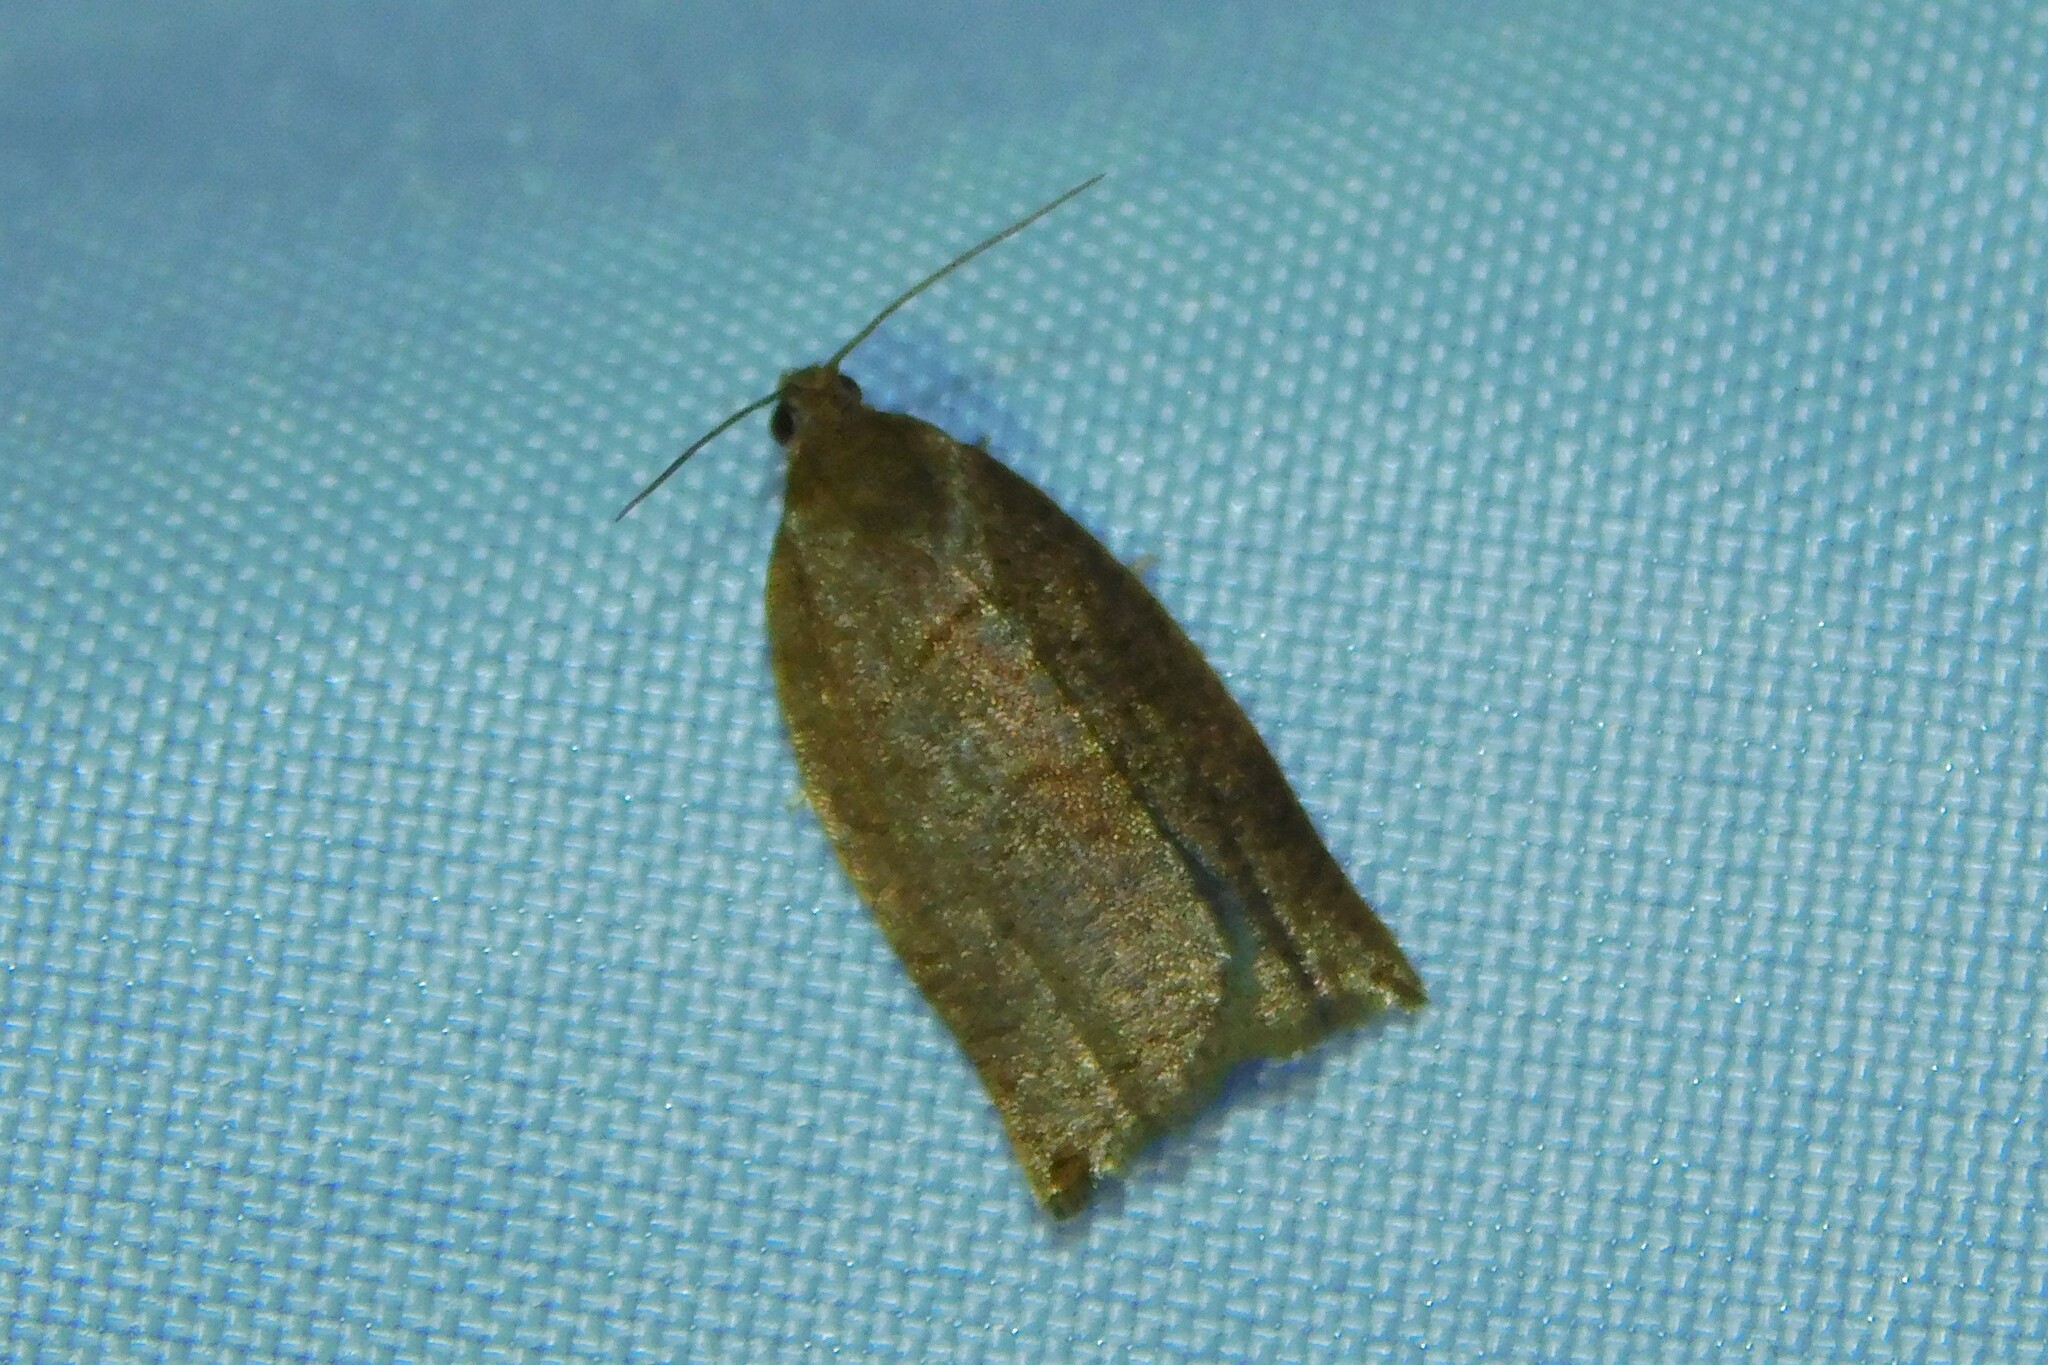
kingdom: Animalia
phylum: Arthropoda
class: Insecta
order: Lepidoptera
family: Tortricidae
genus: Archips
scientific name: Archips rosana
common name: Rose tortrix
